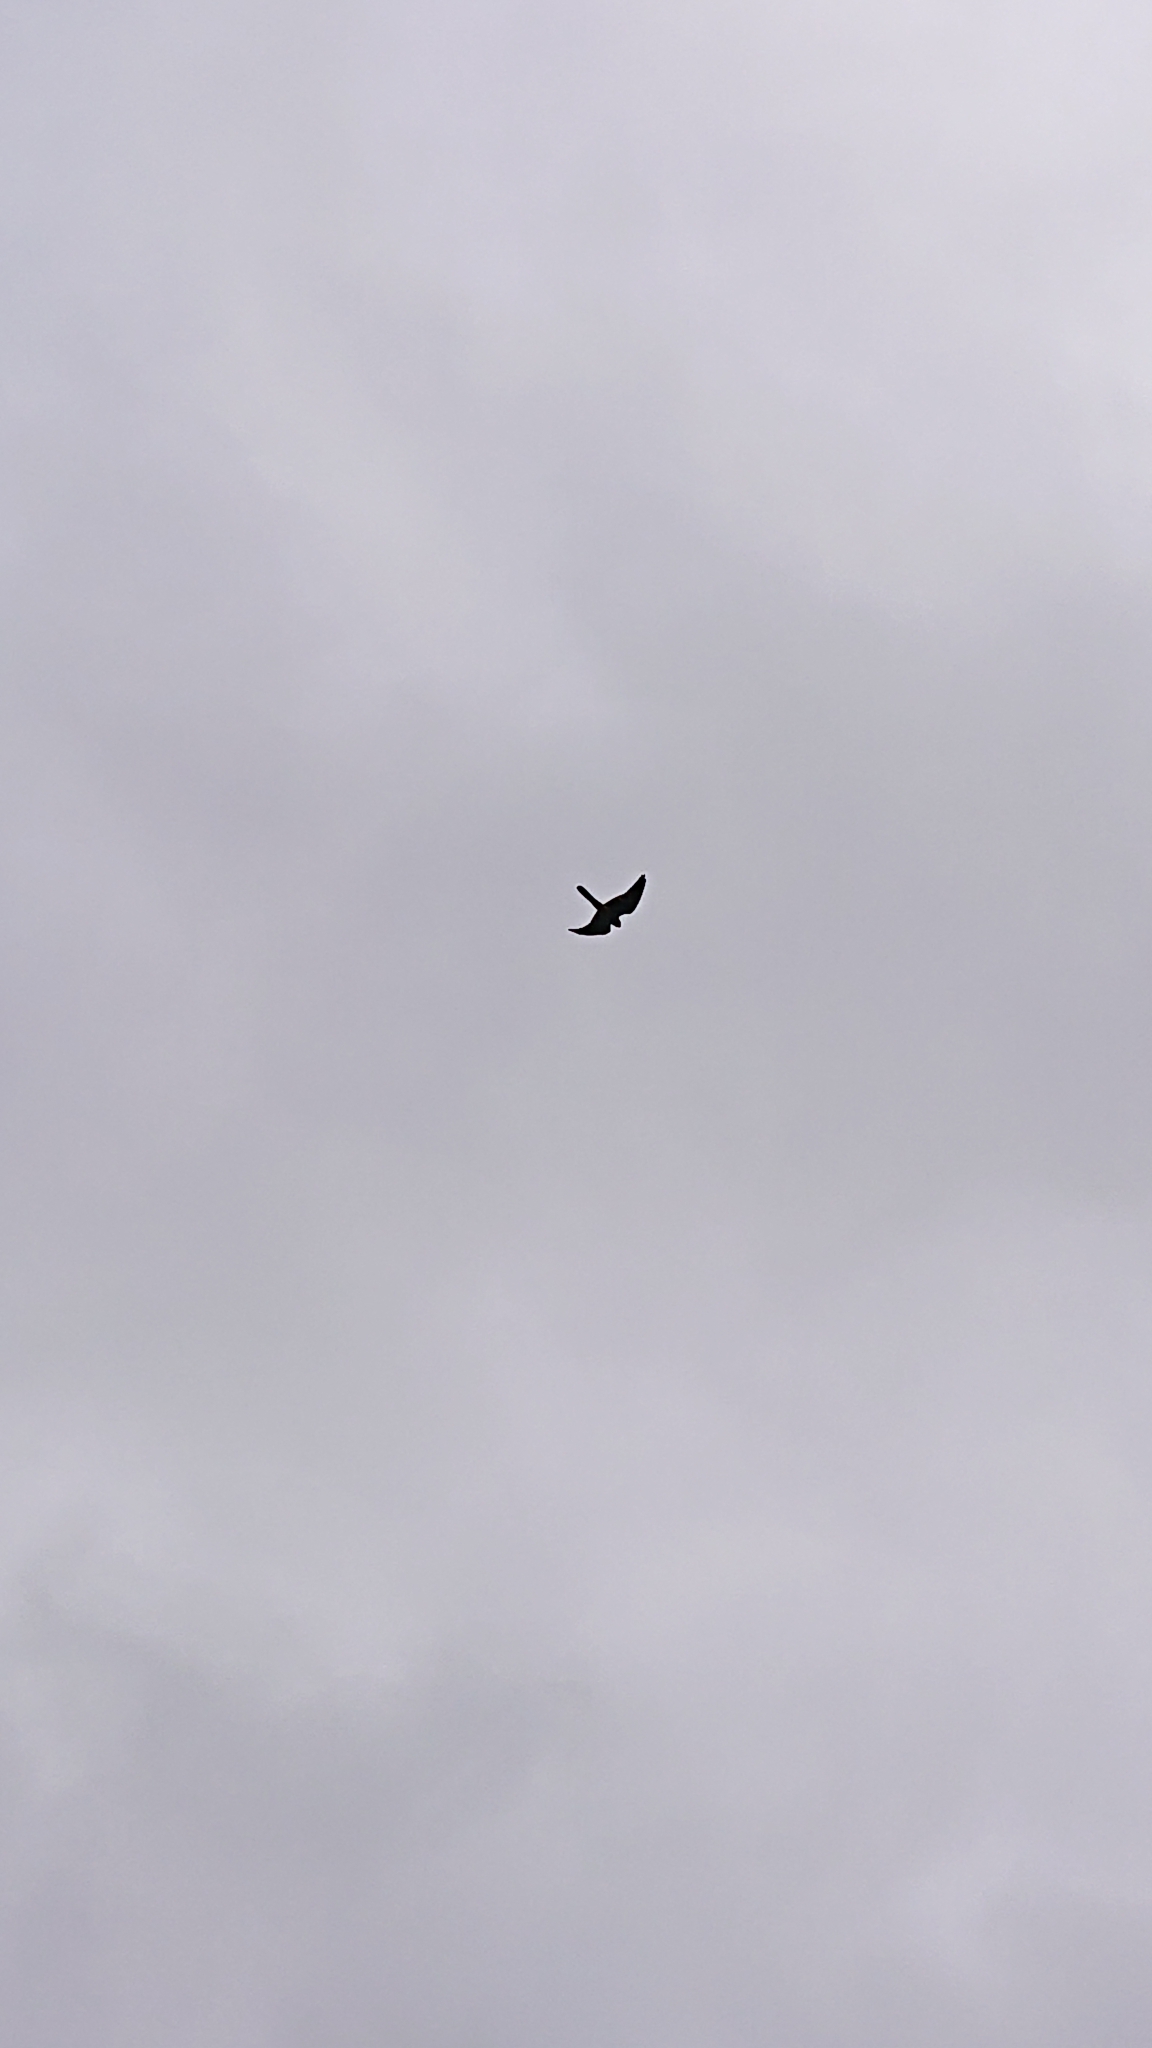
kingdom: Animalia
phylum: Chordata
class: Aves
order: Falconiformes
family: Falconidae
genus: Falco
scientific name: Falco tinnunculus
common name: Common kestrel
